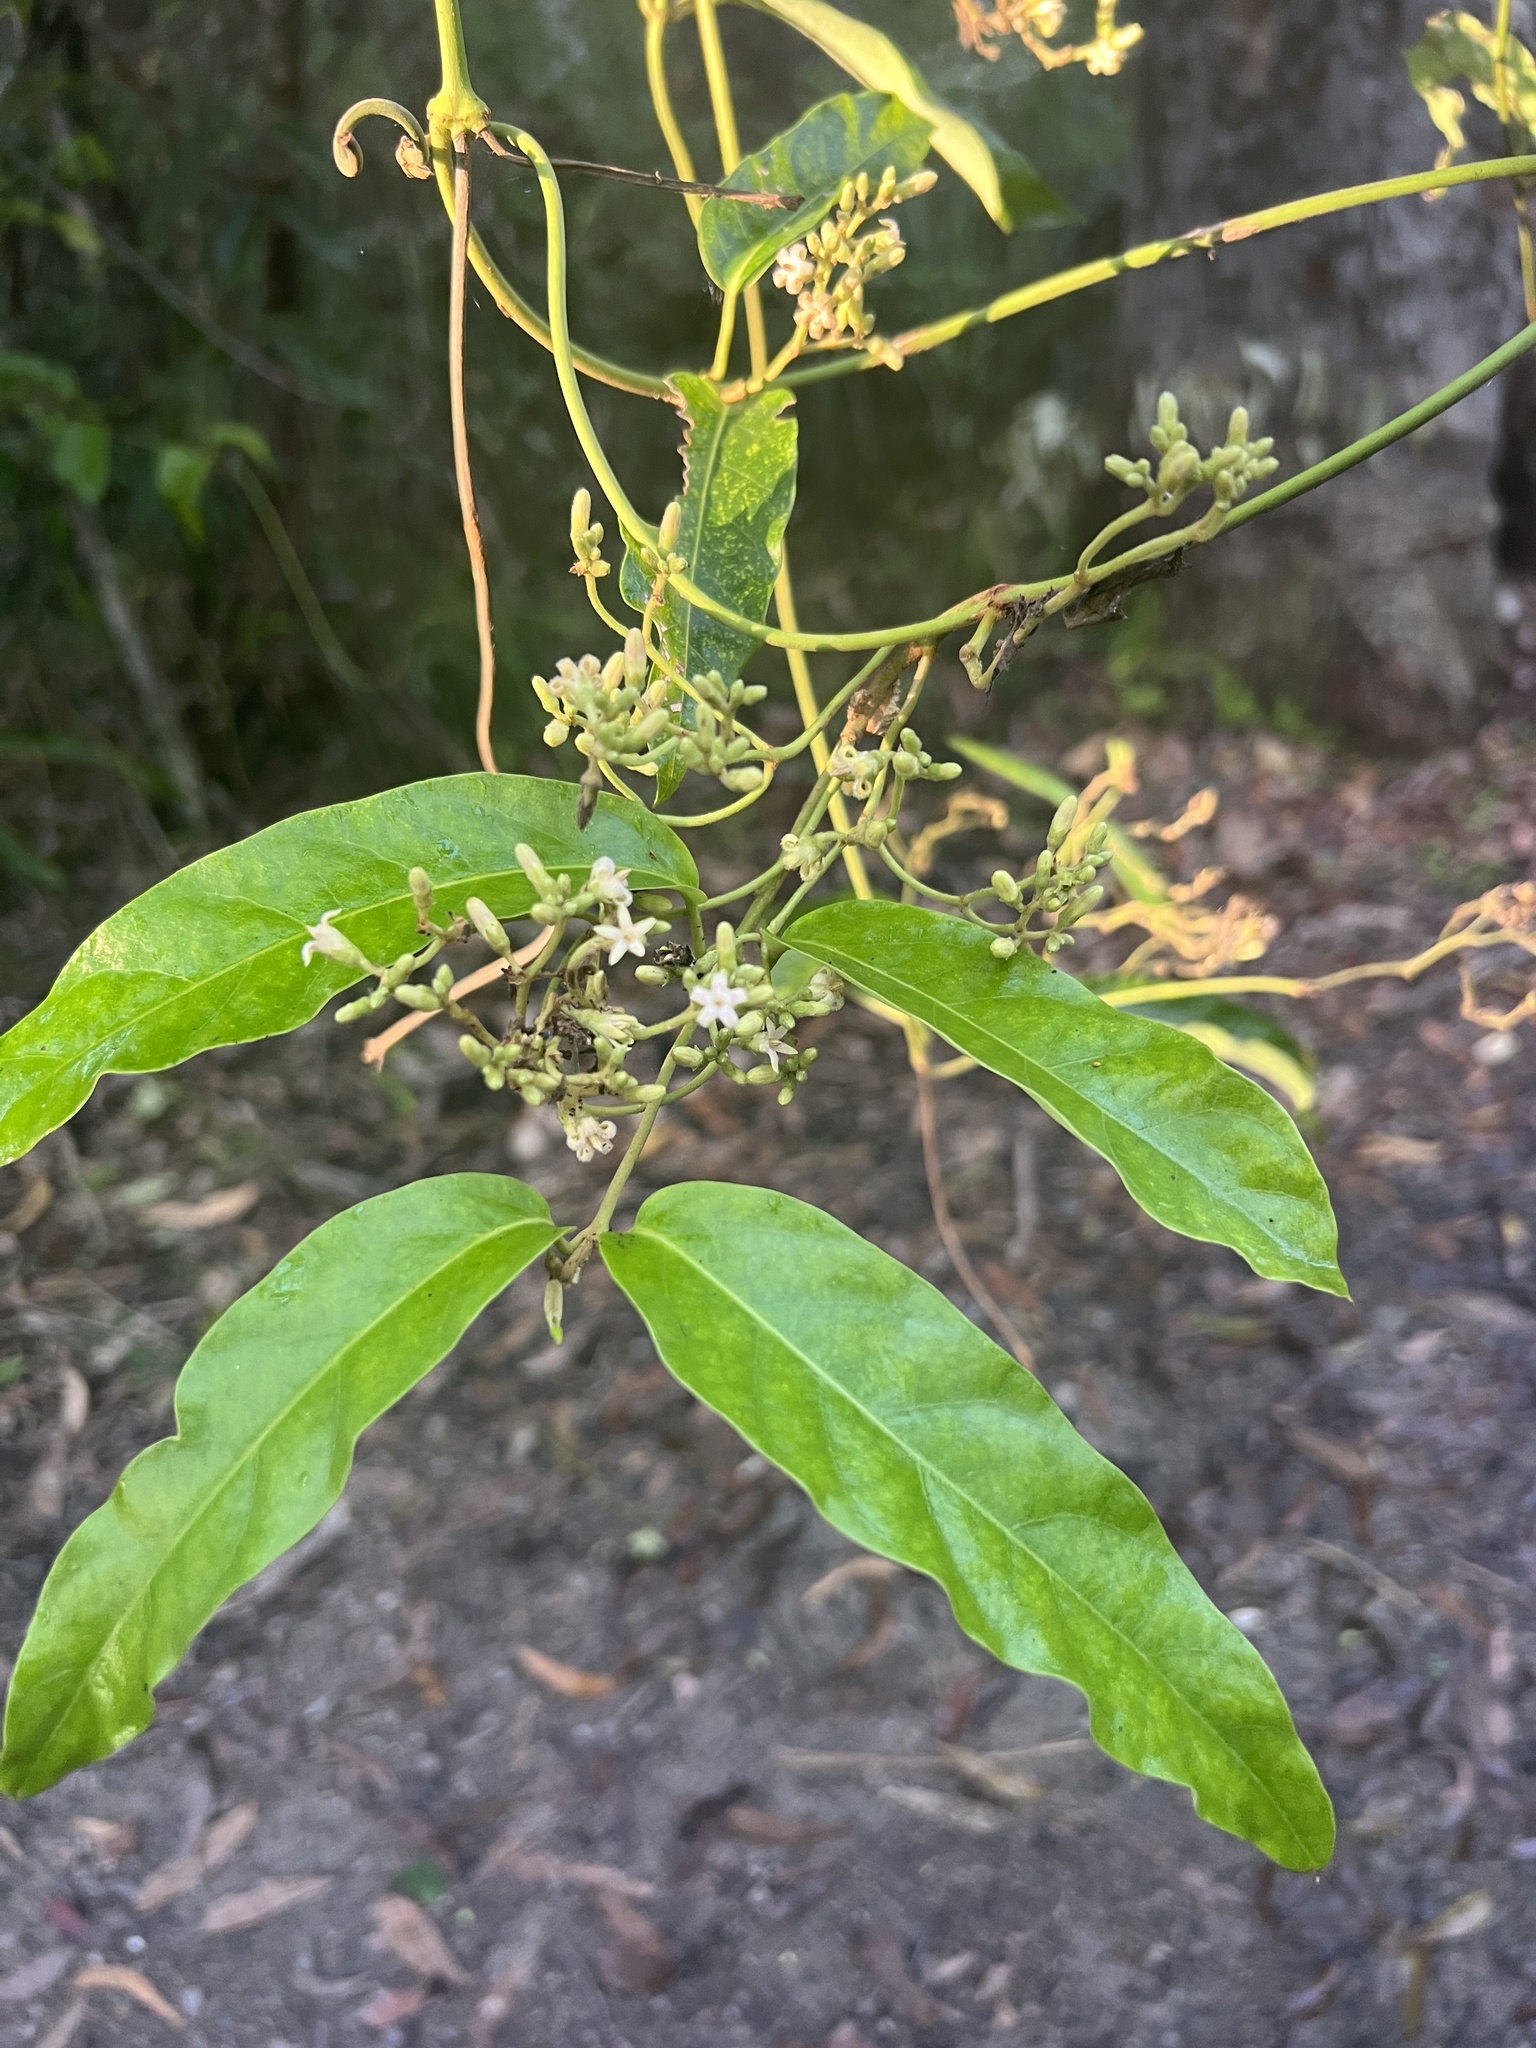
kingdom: Plantae
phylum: Tracheophyta
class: Magnoliopsida
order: Gentianales
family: Apocynaceae
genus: Parsonsia
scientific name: Parsonsia straminea
